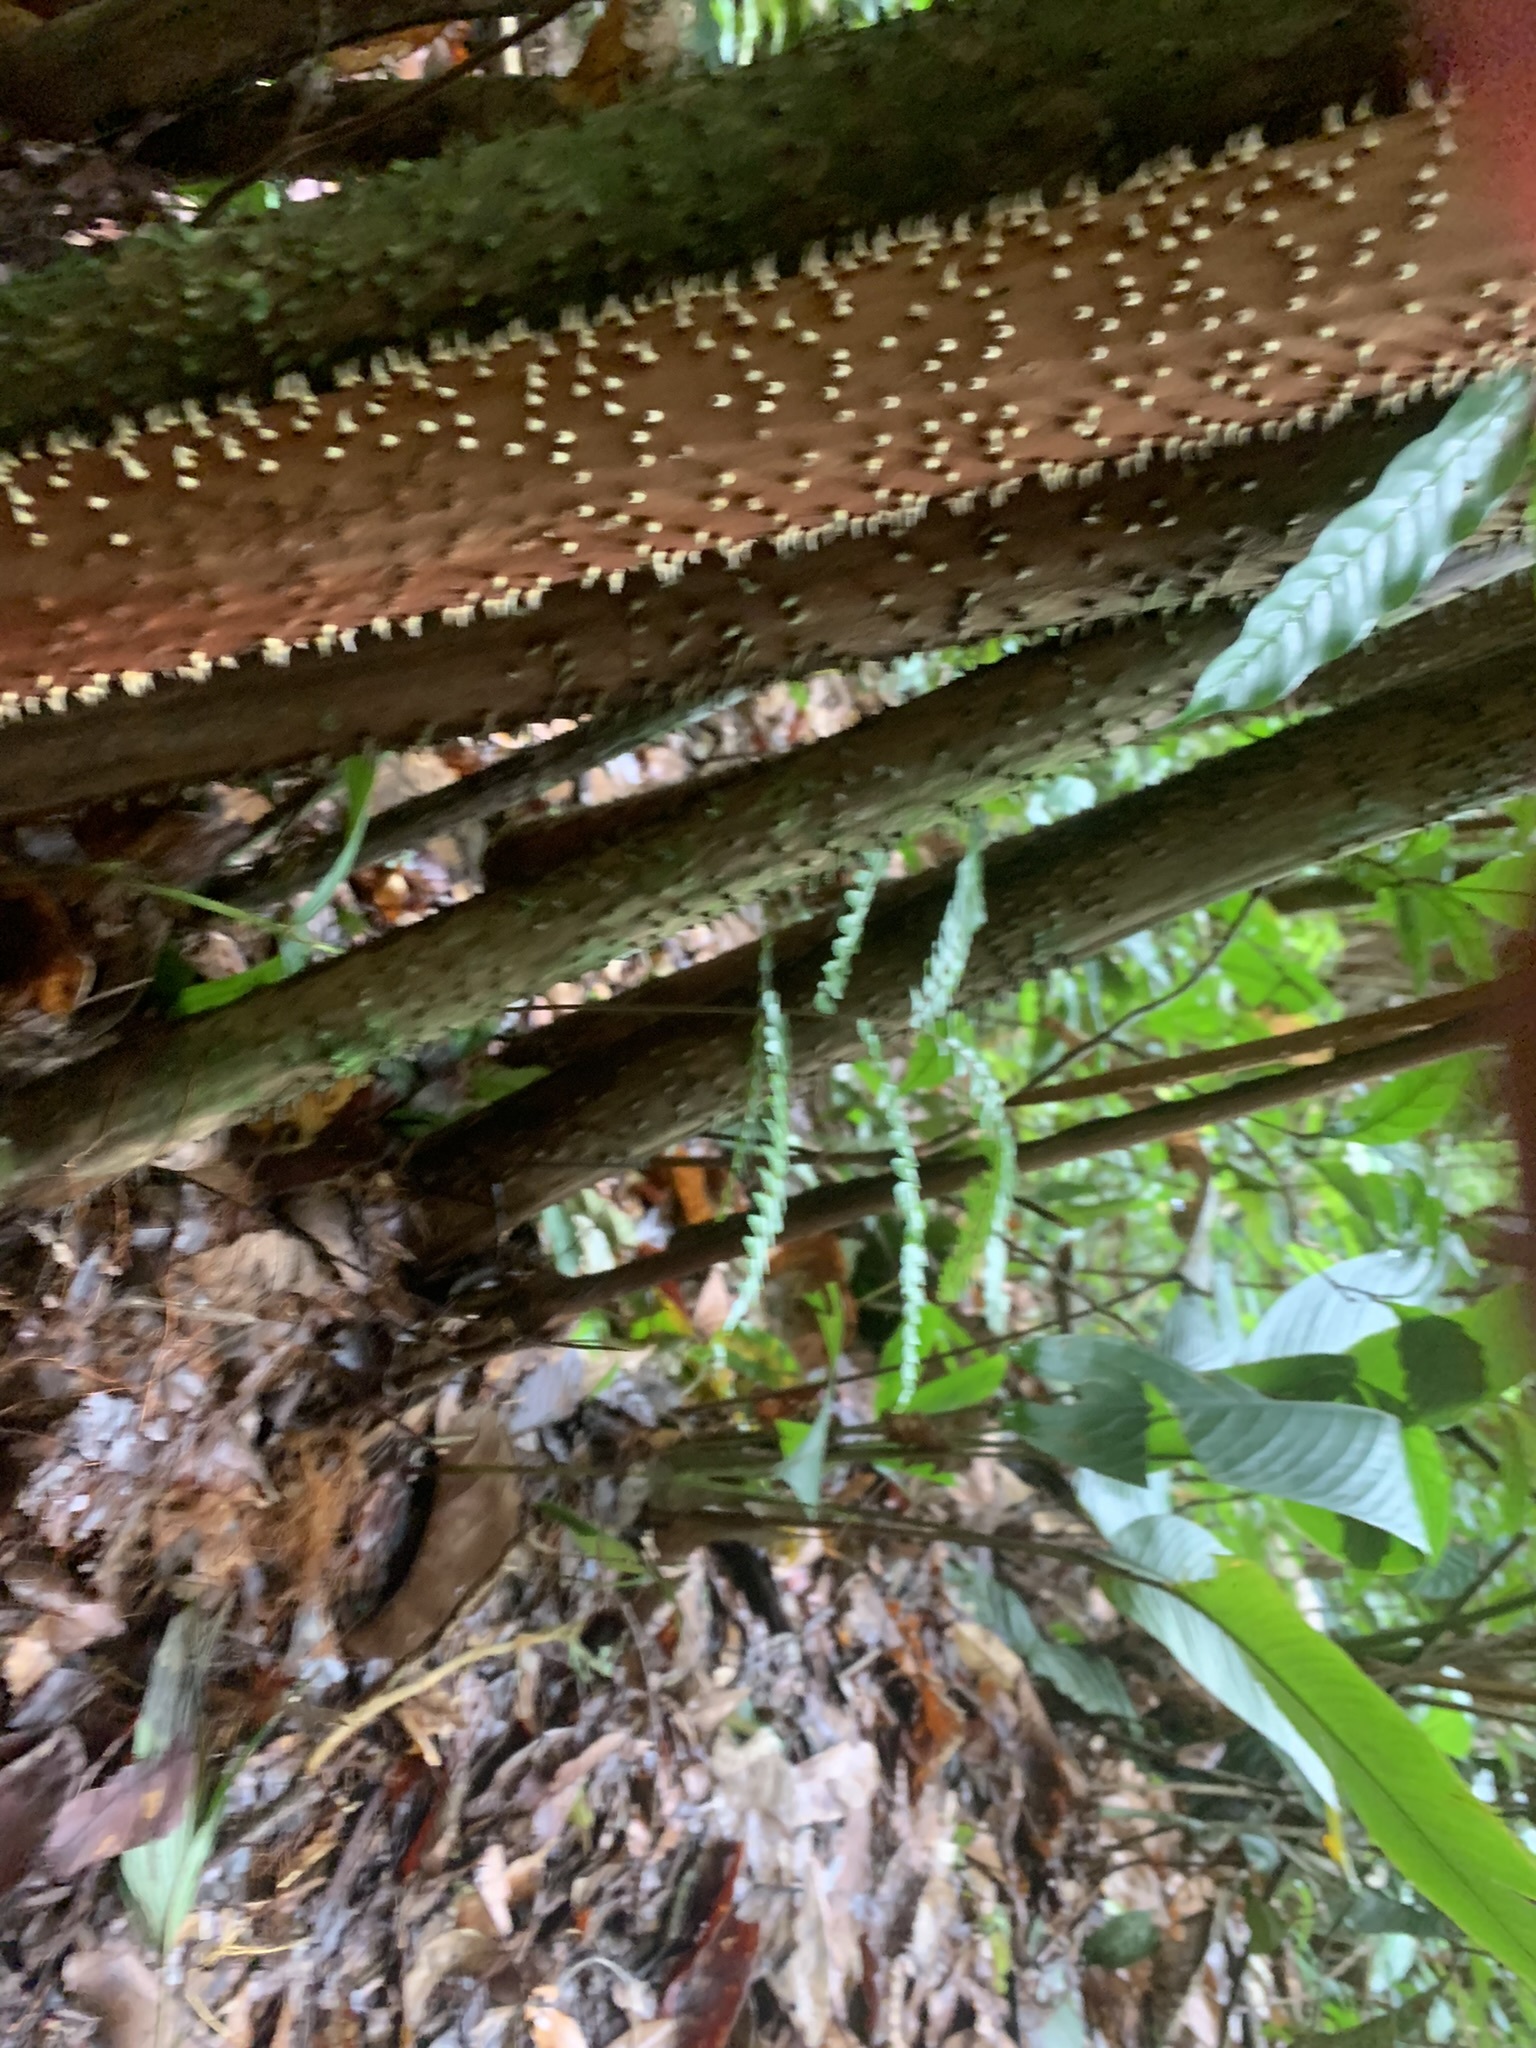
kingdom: Plantae
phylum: Tracheophyta
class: Liliopsida
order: Arecales
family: Arecaceae
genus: Socratea
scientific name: Socratea exorrhiza
